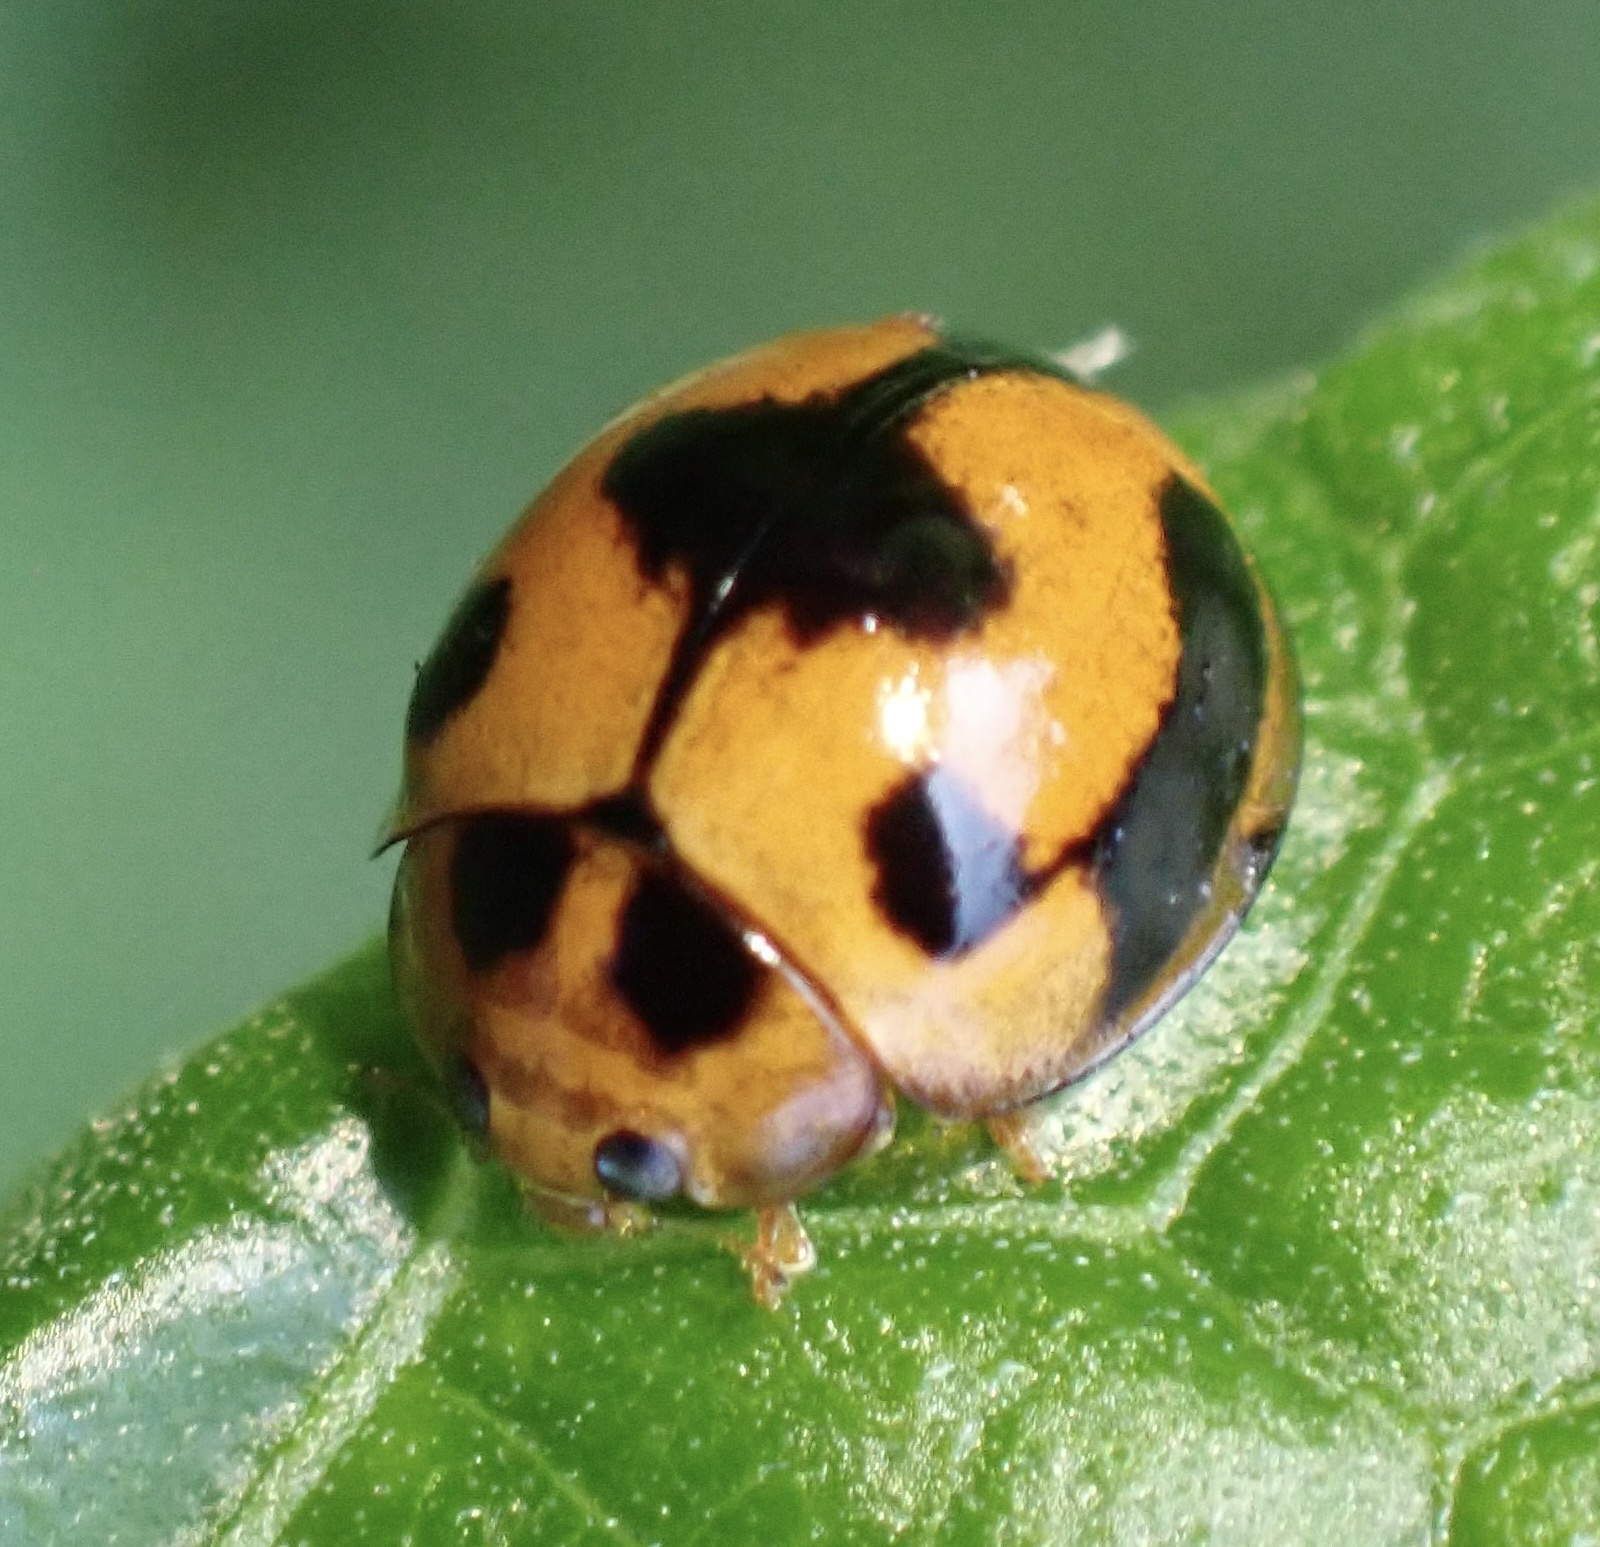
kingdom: Animalia
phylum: Arthropoda
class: Insecta
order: Coleoptera
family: Coccinellidae
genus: Coelophora
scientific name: Coelophora inaequalis
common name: Common australian lady beetle
